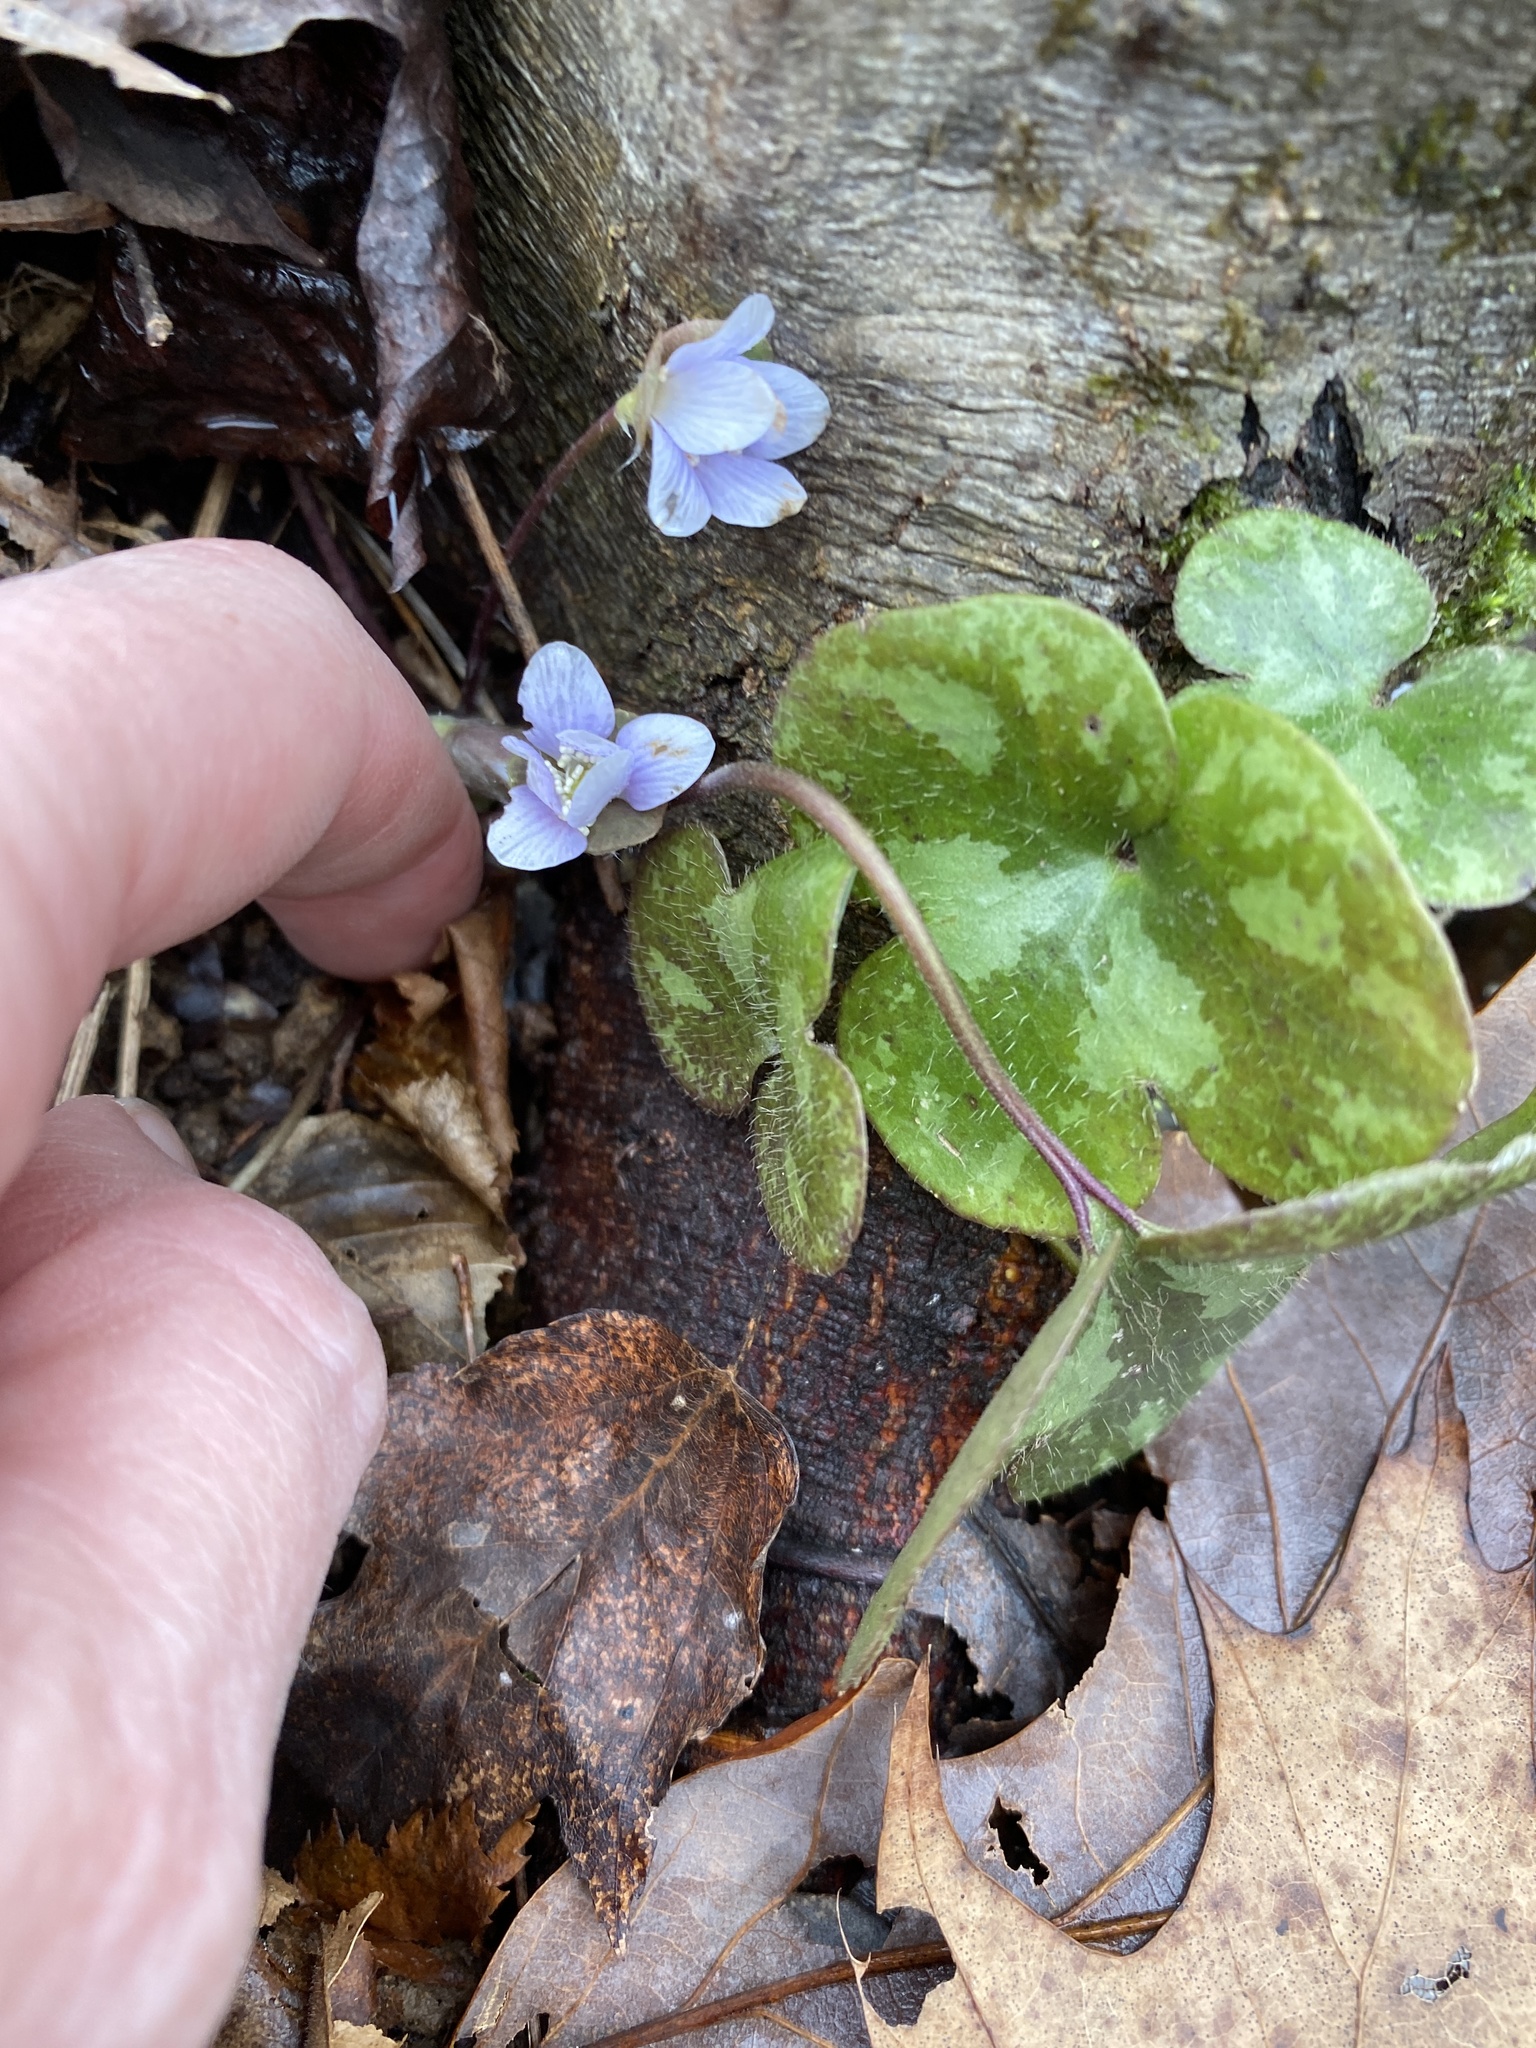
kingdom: Plantae
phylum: Tracheophyta
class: Magnoliopsida
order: Ranunculales
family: Ranunculaceae
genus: Hepatica
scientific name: Hepatica americana
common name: American hepatica
